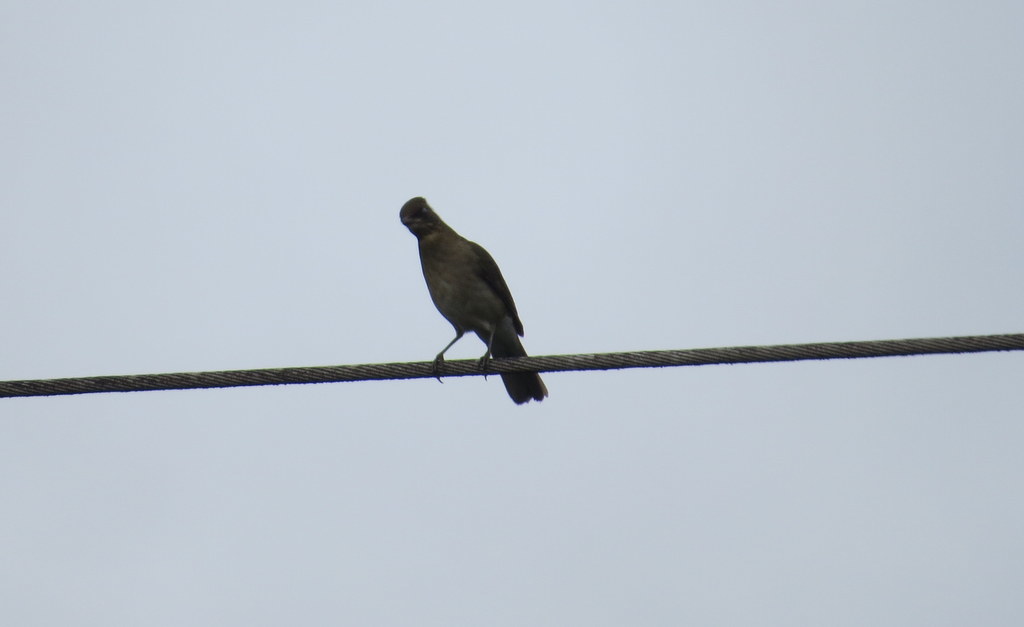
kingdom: Animalia
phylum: Chordata
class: Aves
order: Passeriformes
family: Turdidae
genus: Turdus
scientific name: Turdus amaurochalinus
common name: Creamy-bellied thrush
